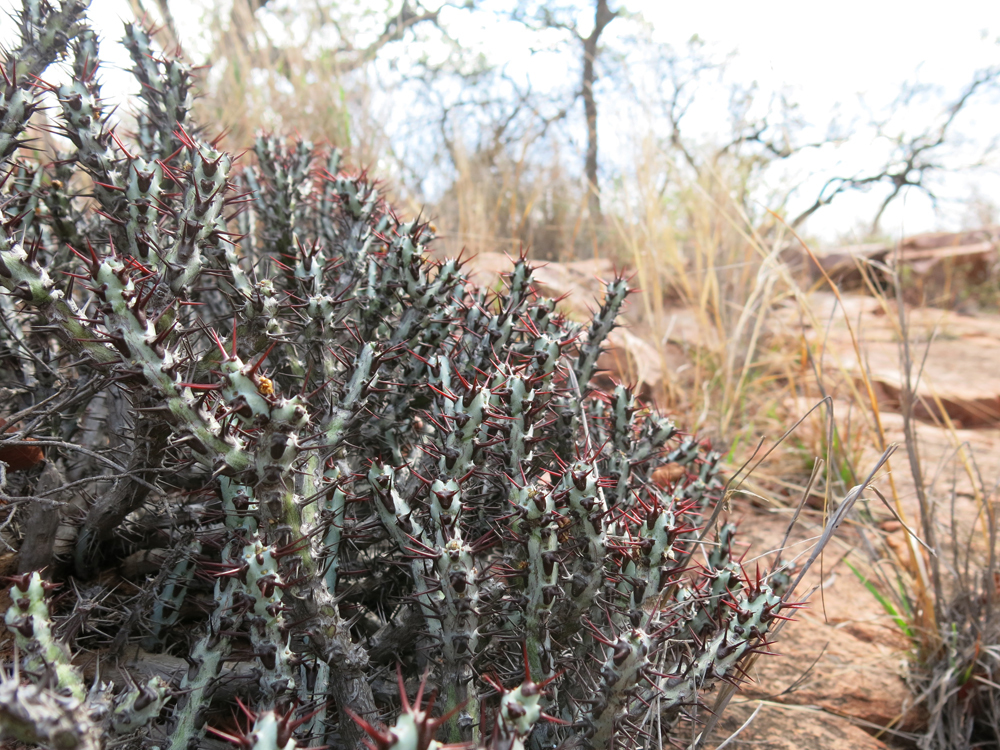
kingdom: Plantae
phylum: Tracheophyta
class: Magnoliopsida
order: Malpighiales
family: Euphorbiaceae
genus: Euphorbia
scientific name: Euphorbia aeruginosa
